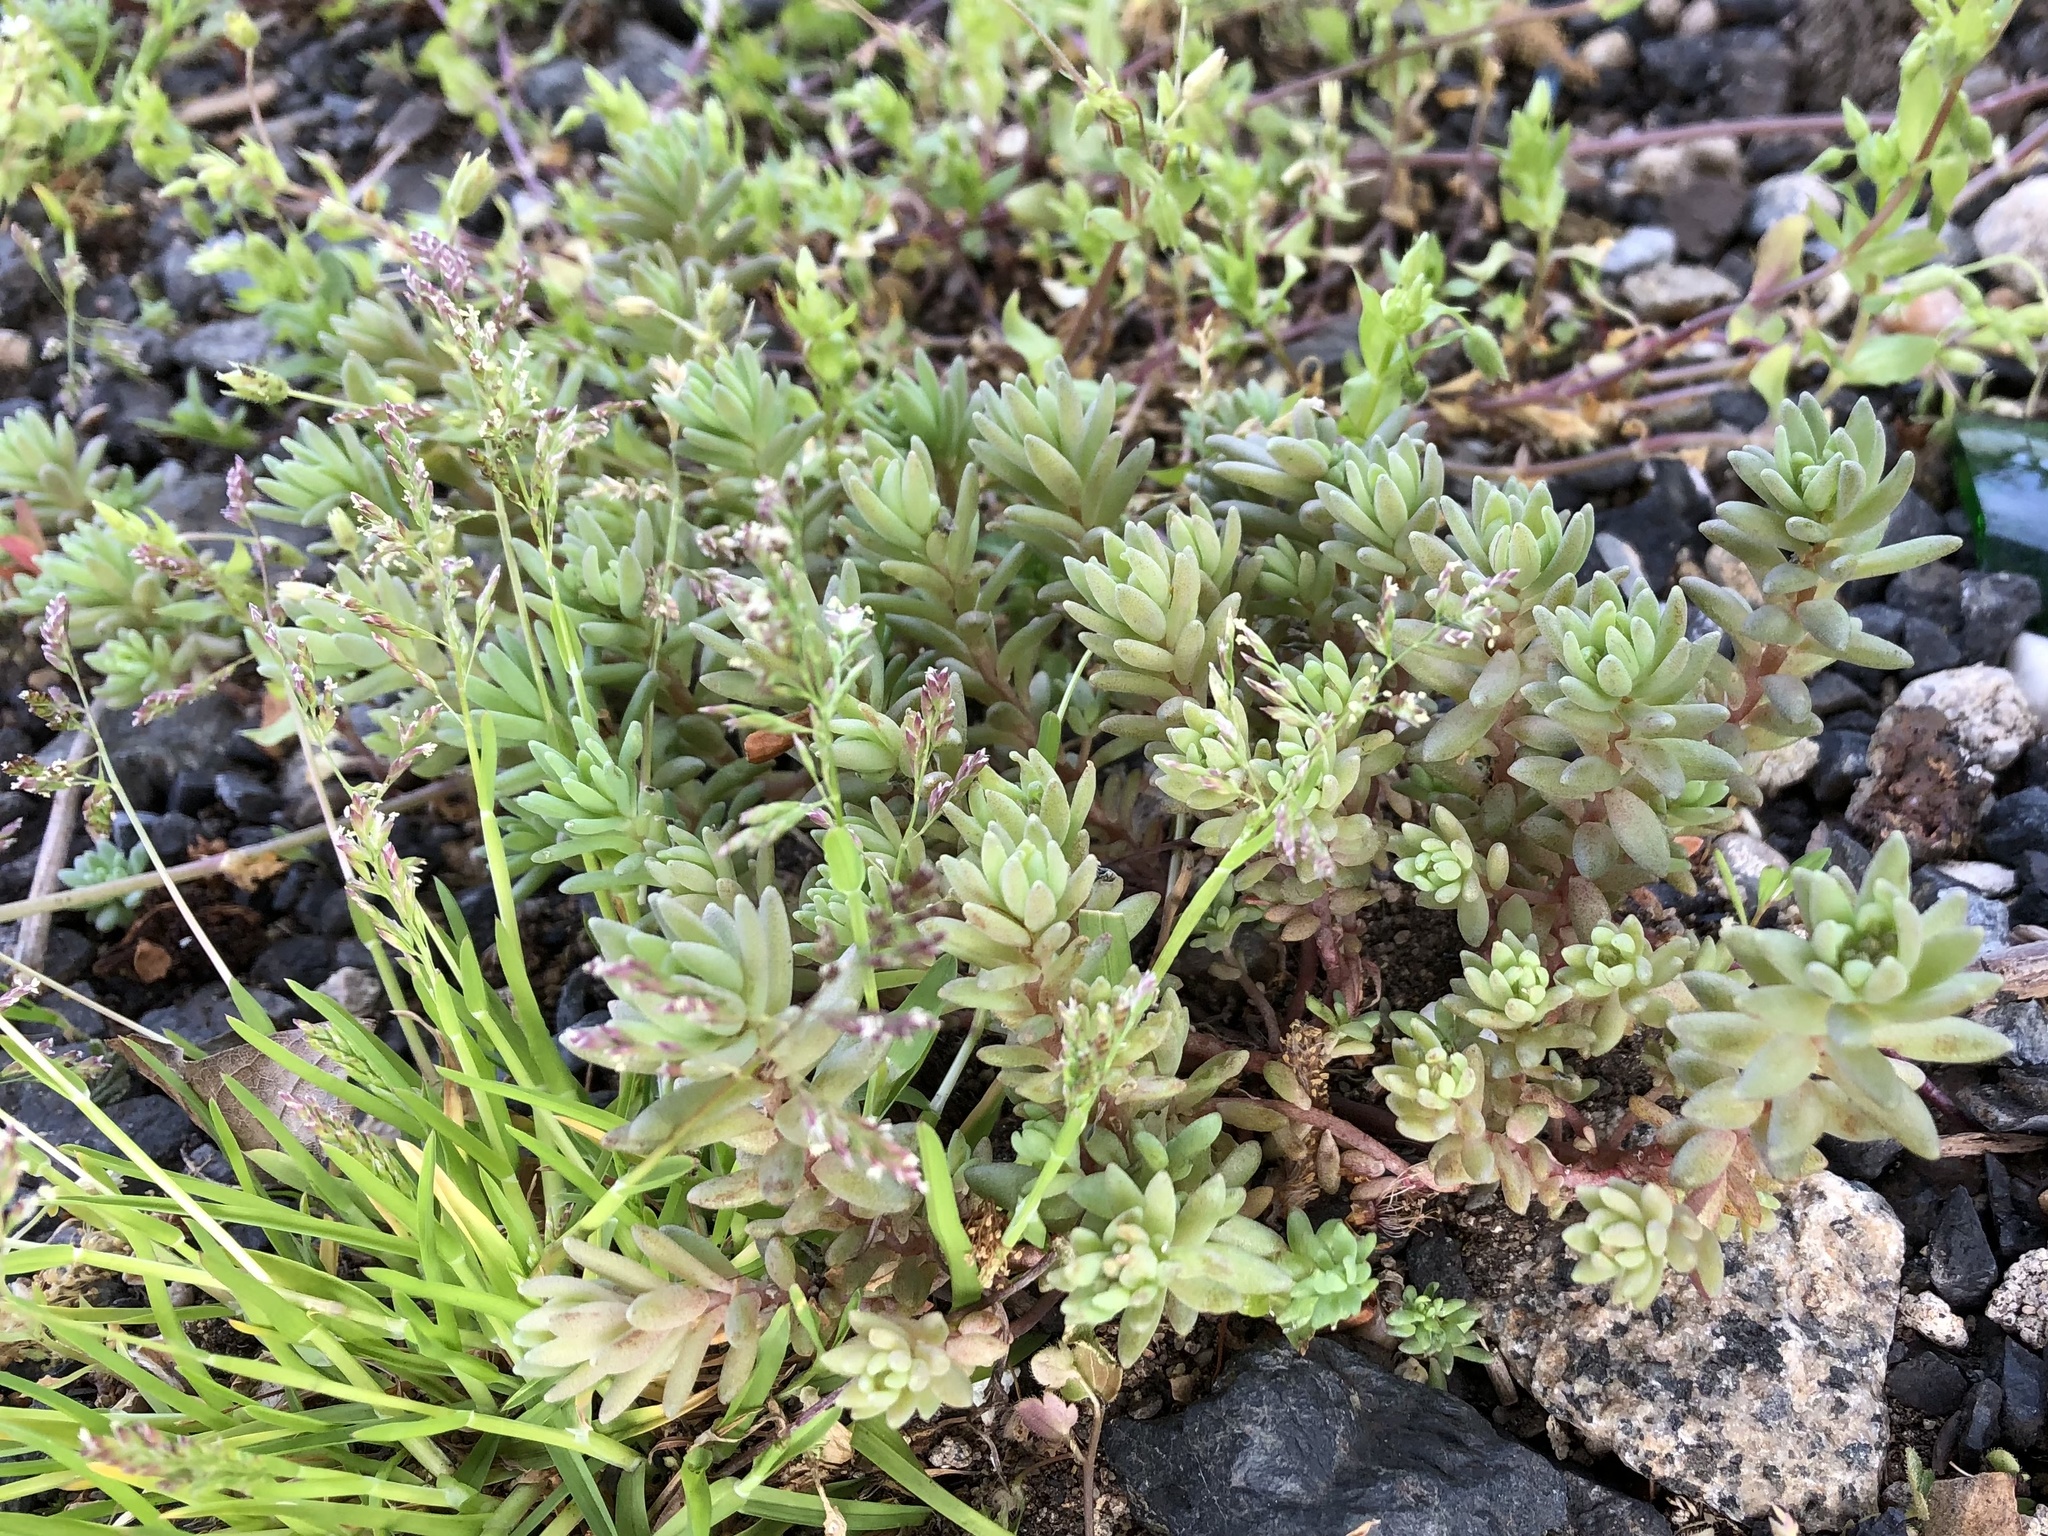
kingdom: Plantae
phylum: Tracheophyta
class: Magnoliopsida
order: Saxifragales
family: Crassulaceae
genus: Sedum
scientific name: Sedum hispanicum
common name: Spanish stonecrop
